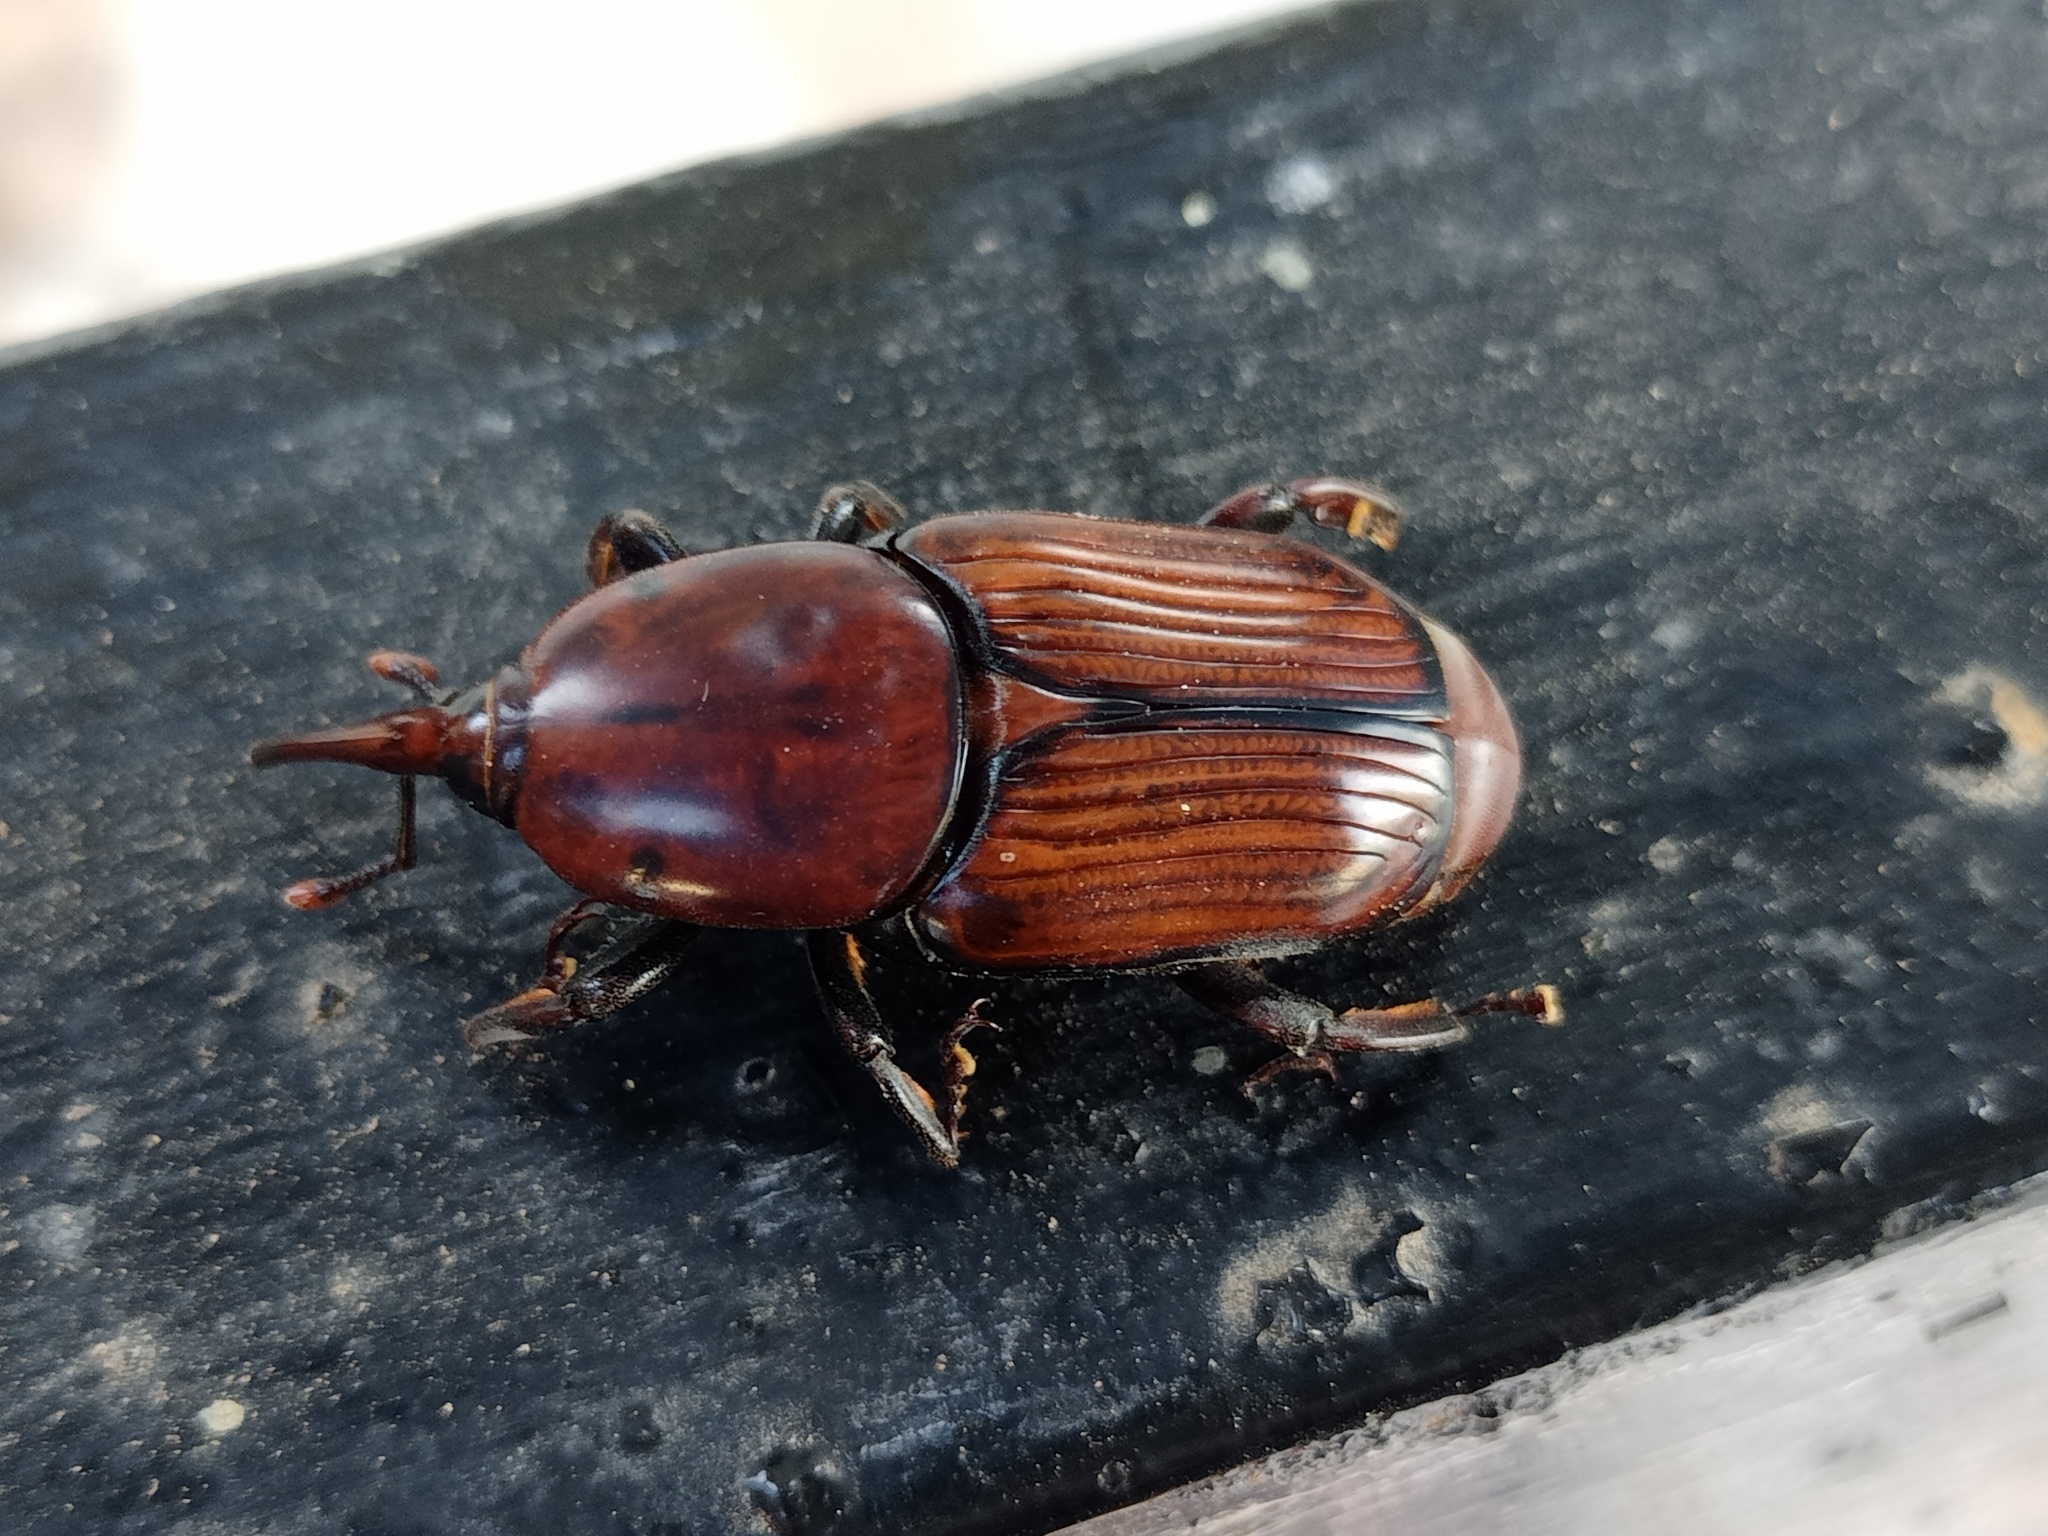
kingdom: Animalia
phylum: Arthropoda
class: Insecta
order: Coleoptera
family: Dryophthoridae
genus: Rhynchophorus
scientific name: Rhynchophorus ferrugineus
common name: Red palm weevil
